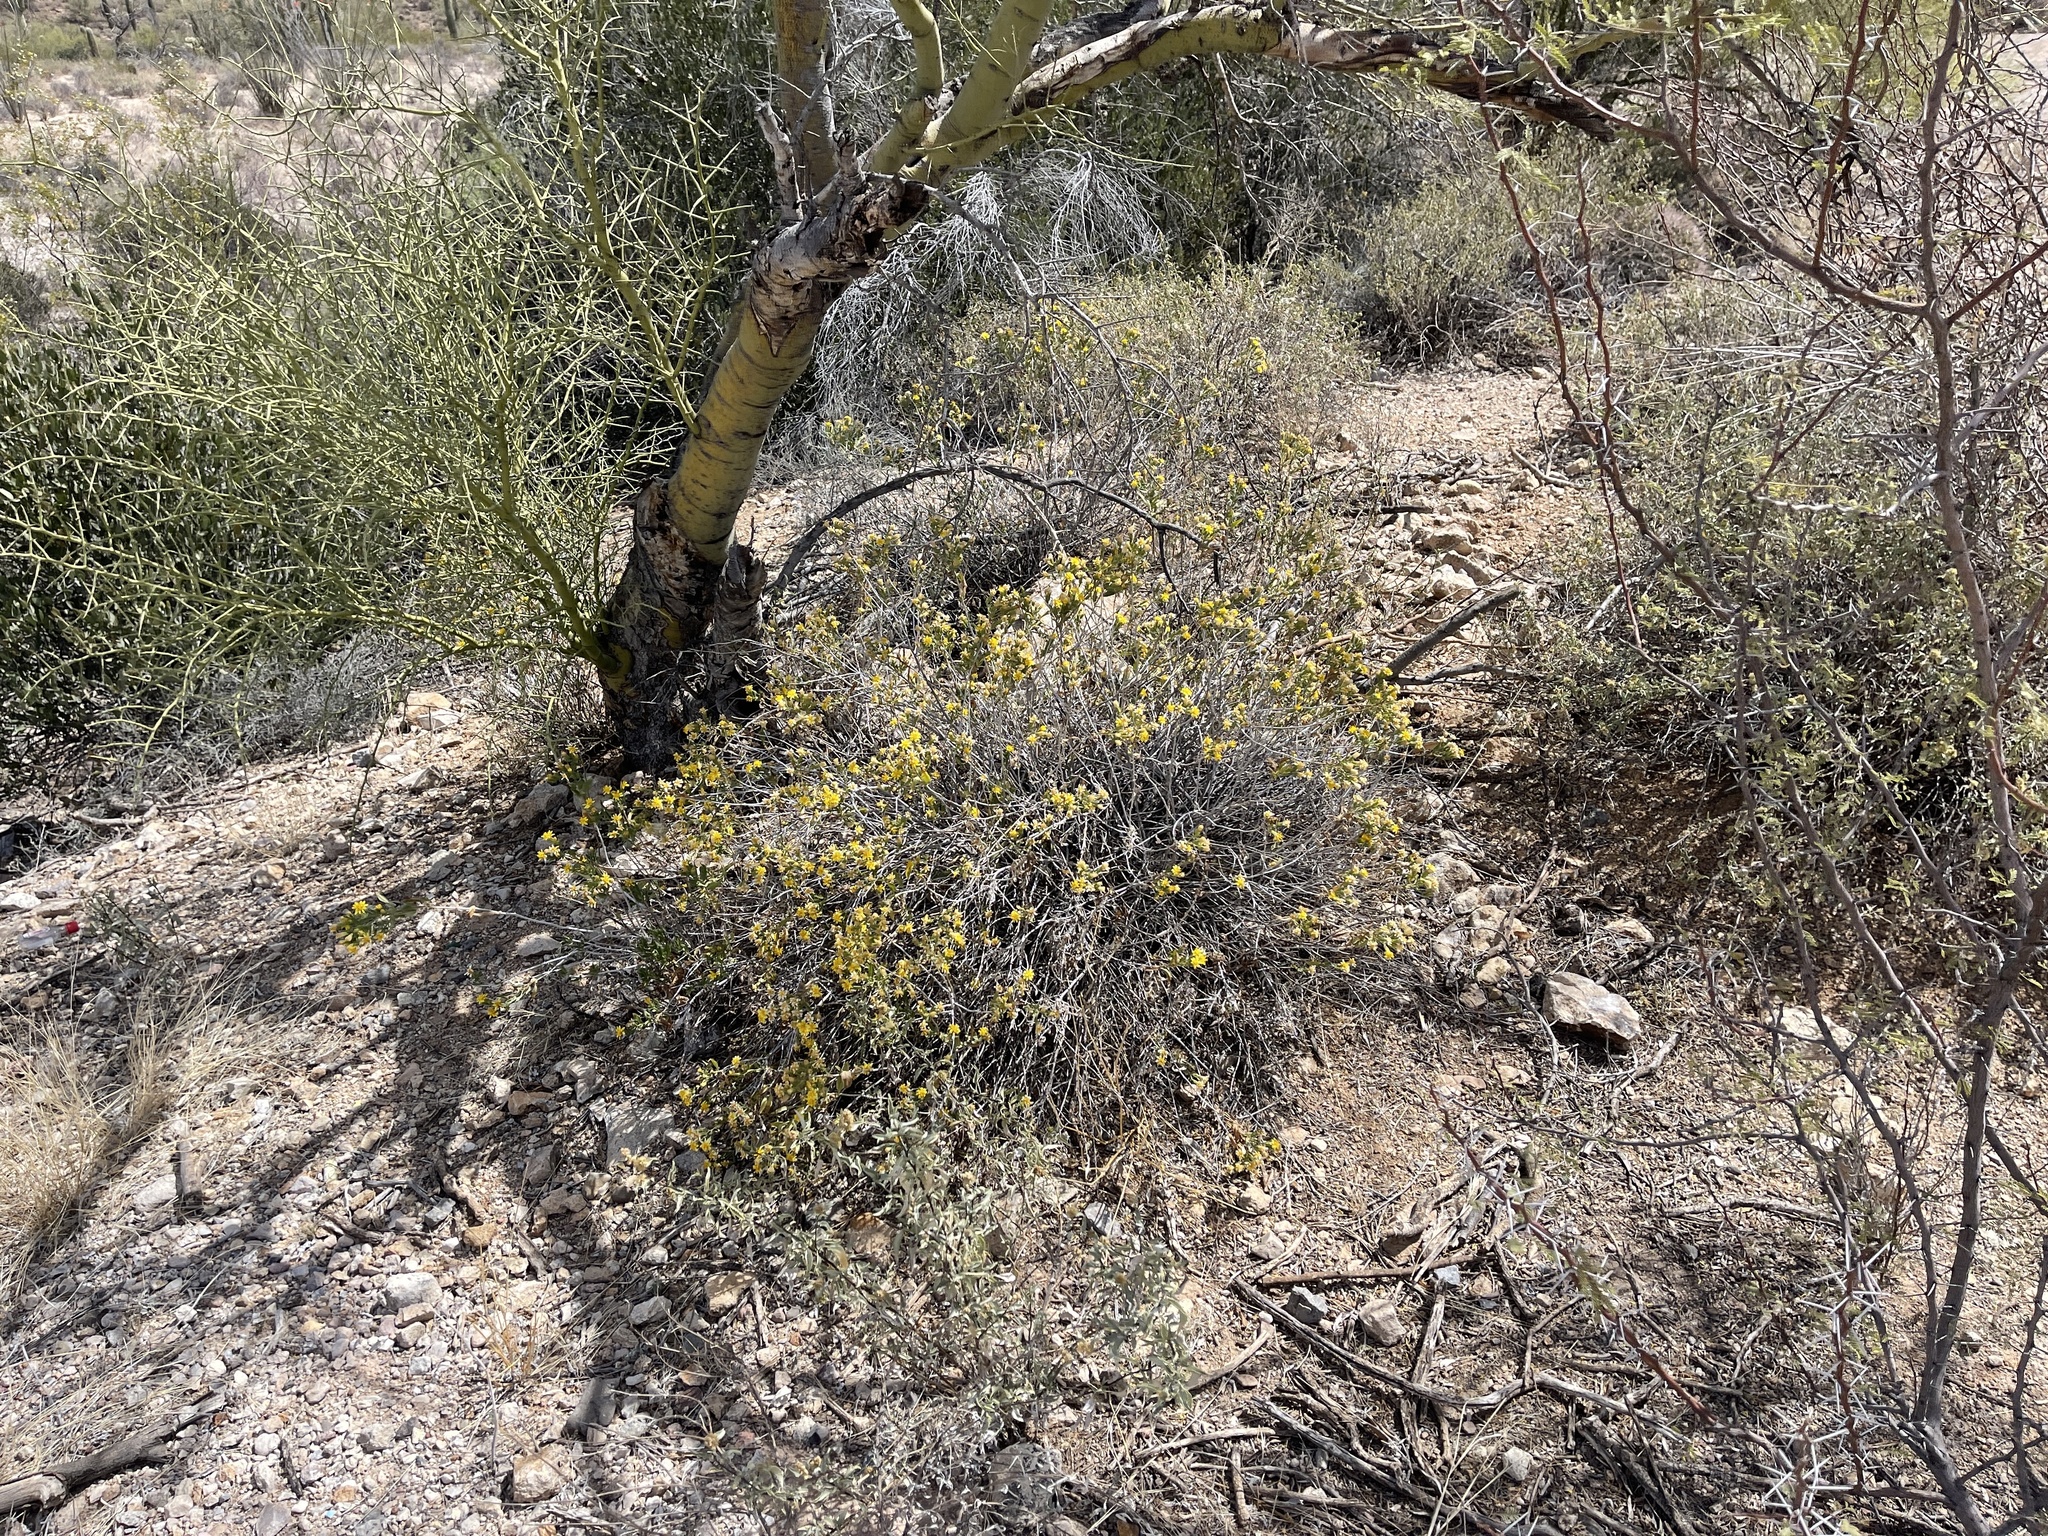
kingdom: Plantae
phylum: Tracheophyta
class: Magnoliopsida
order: Asterales
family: Asteraceae
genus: Acamptopappus
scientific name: Acamptopappus sphaerocephalus
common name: Goldenhead
